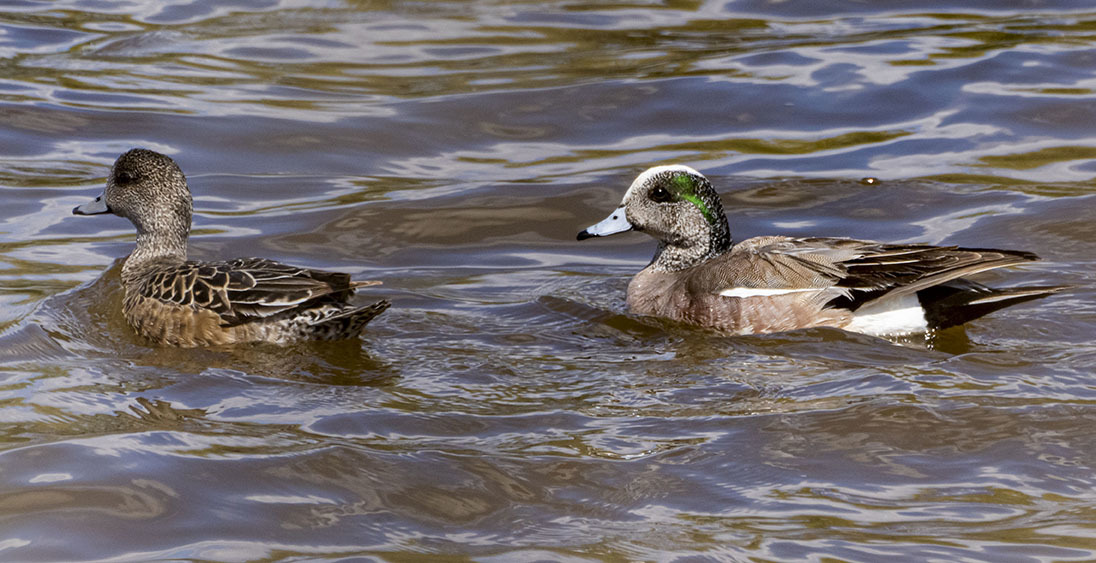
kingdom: Animalia
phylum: Chordata
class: Aves
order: Anseriformes
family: Anatidae
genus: Mareca
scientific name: Mareca americana
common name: American wigeon
